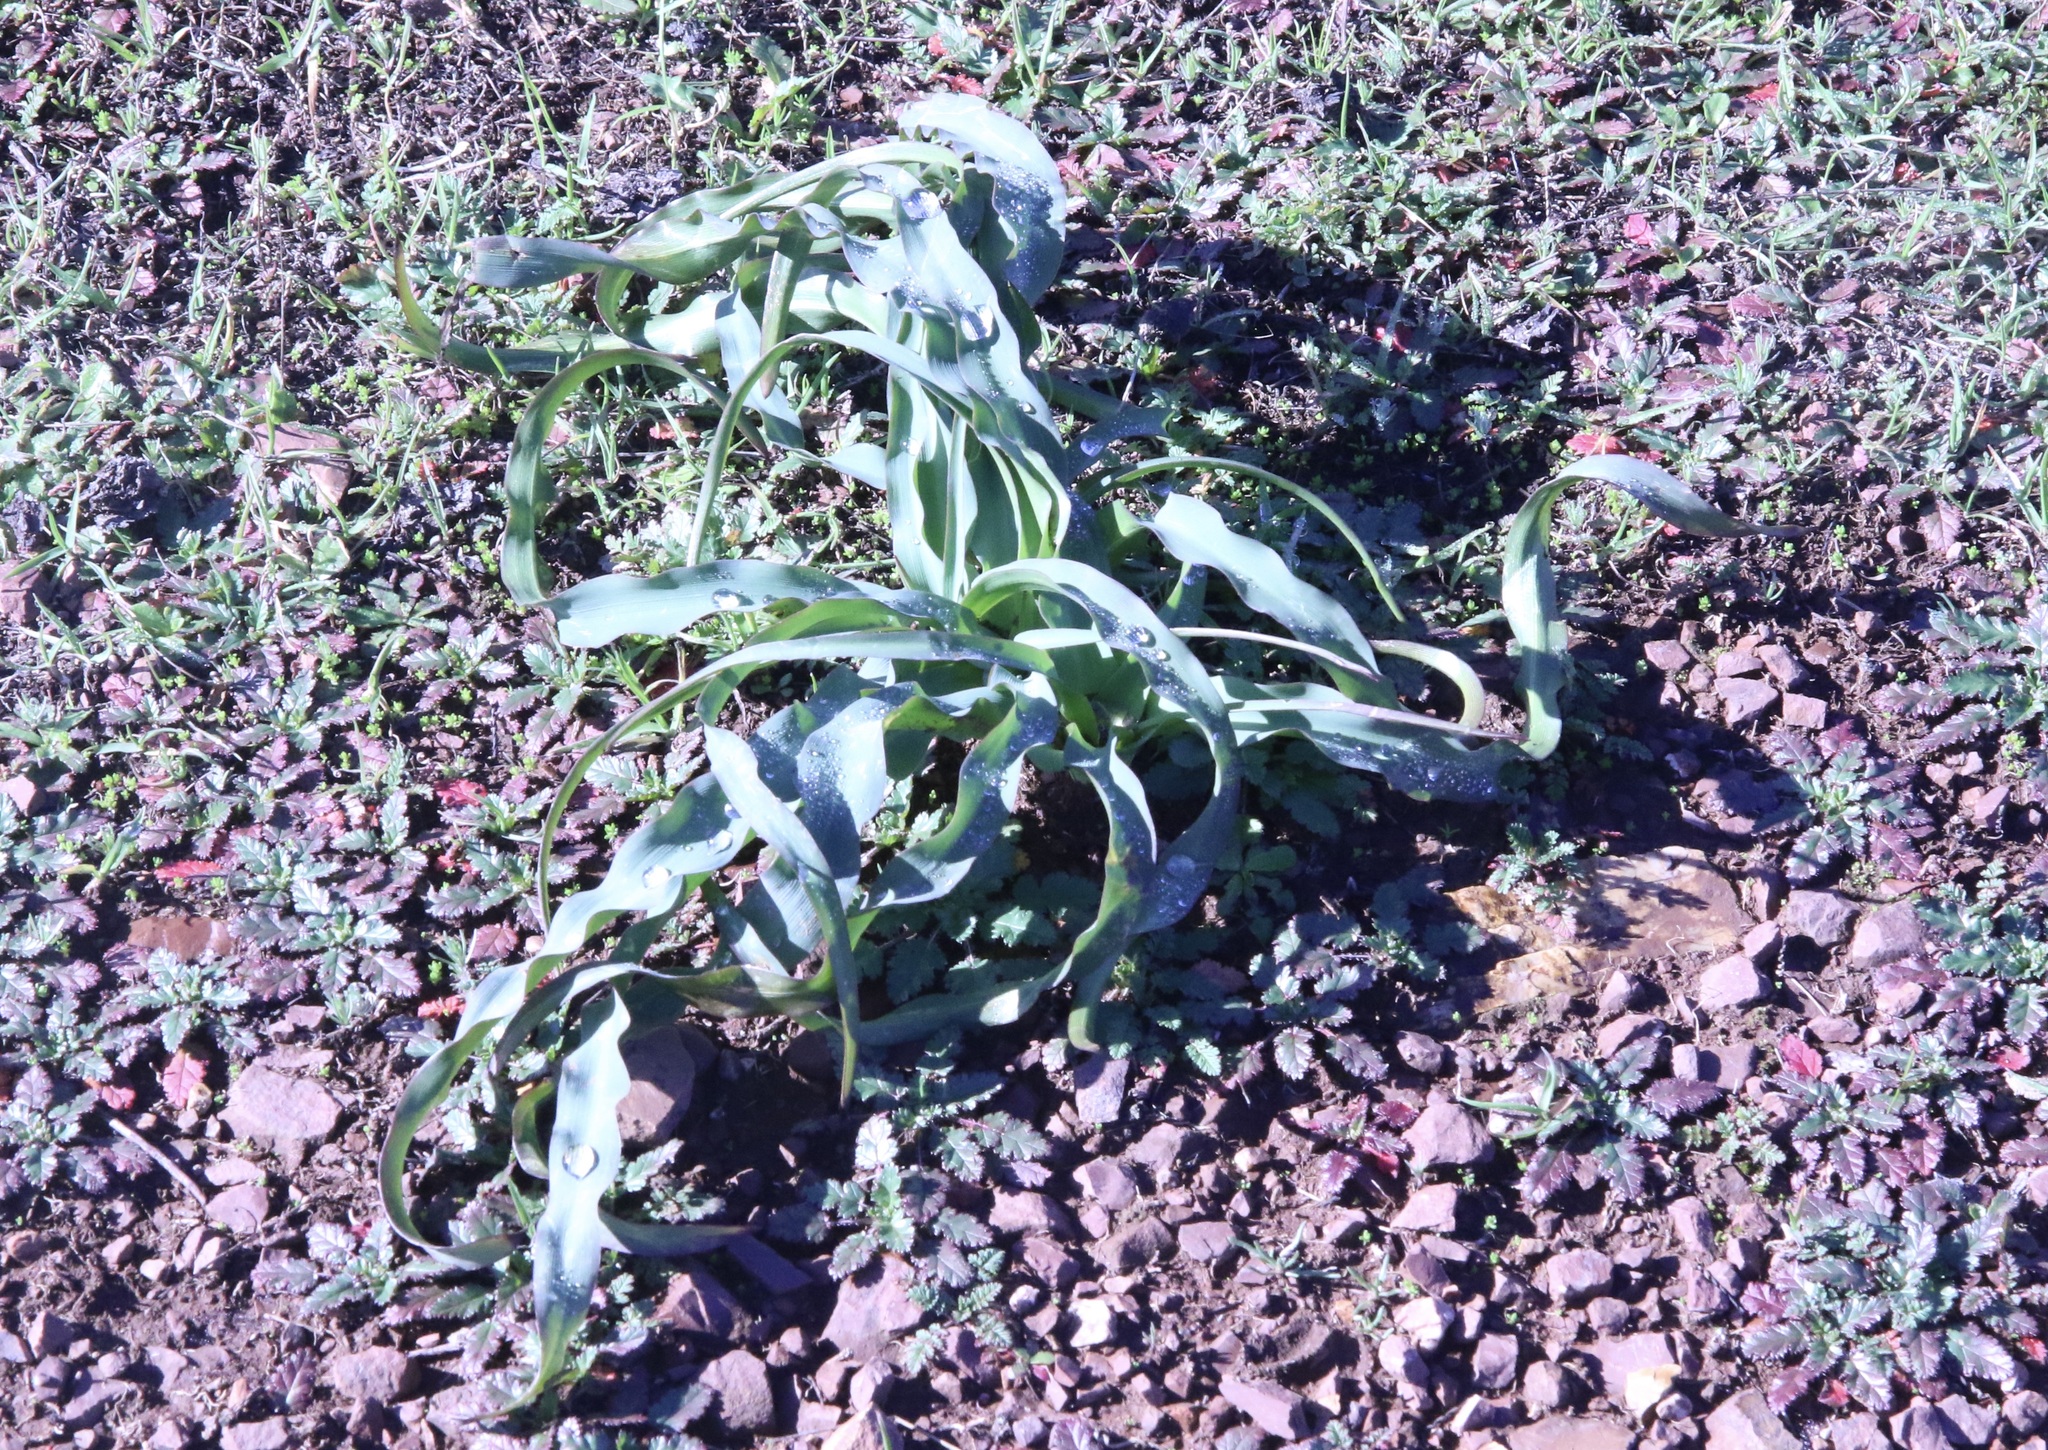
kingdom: Plantae
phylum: Tracheophyta
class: Liliopsida
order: Asparagales
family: Asparagaceae
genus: Chlorogalum
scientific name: Chlorogalum pomeridianum
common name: Amole
